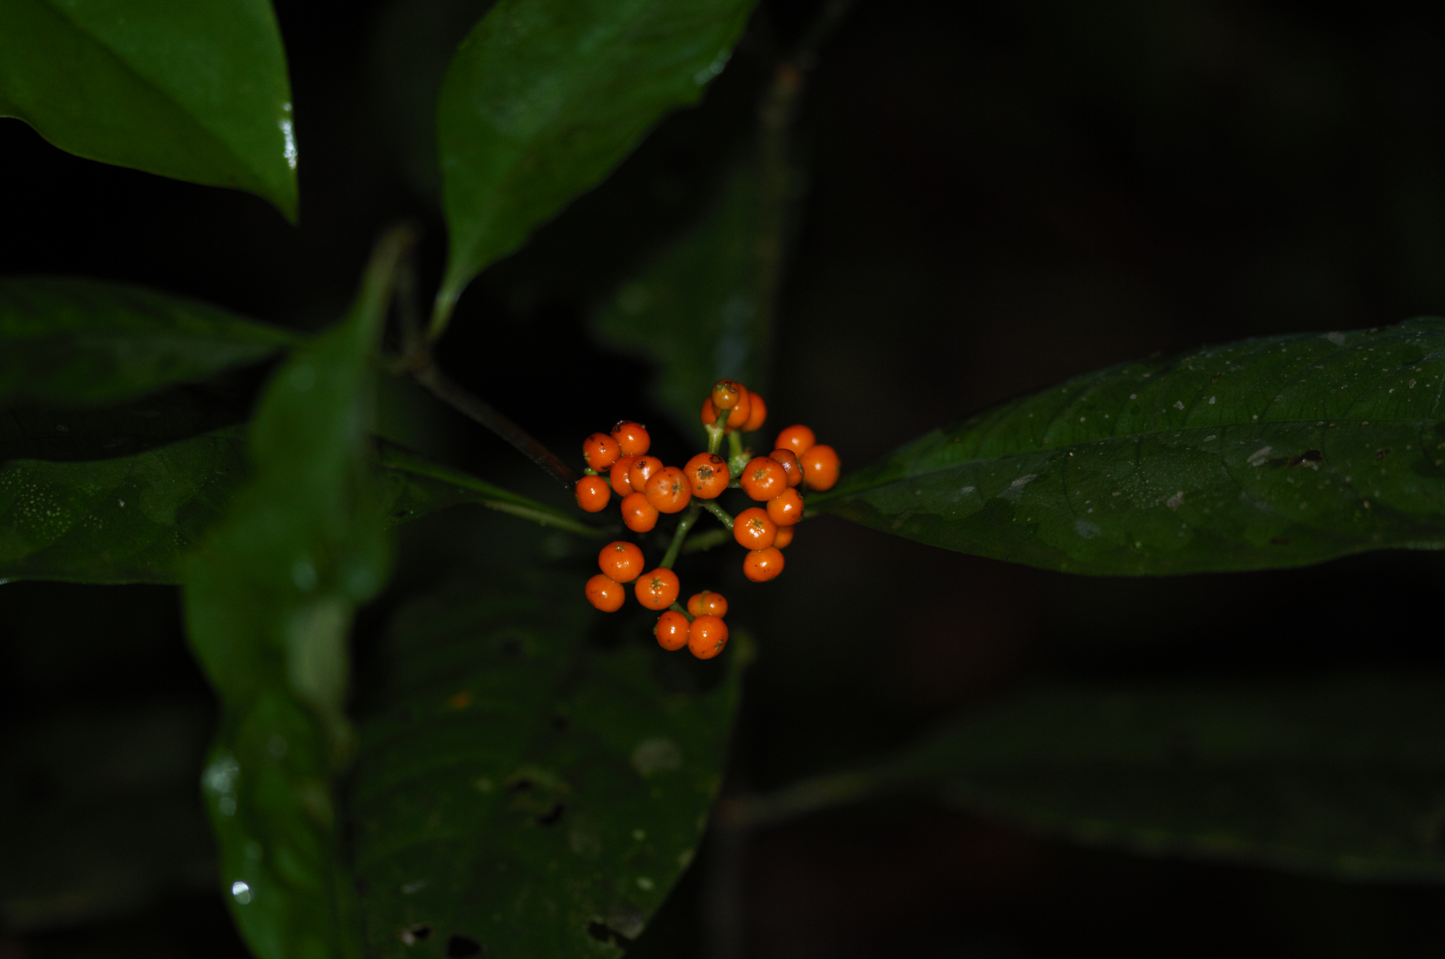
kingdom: Plantae
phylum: Tracheophyta
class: Magnoliopsida
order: Gentianales
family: Rubiaceae
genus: Palicourea
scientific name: Palicourea racemosa
